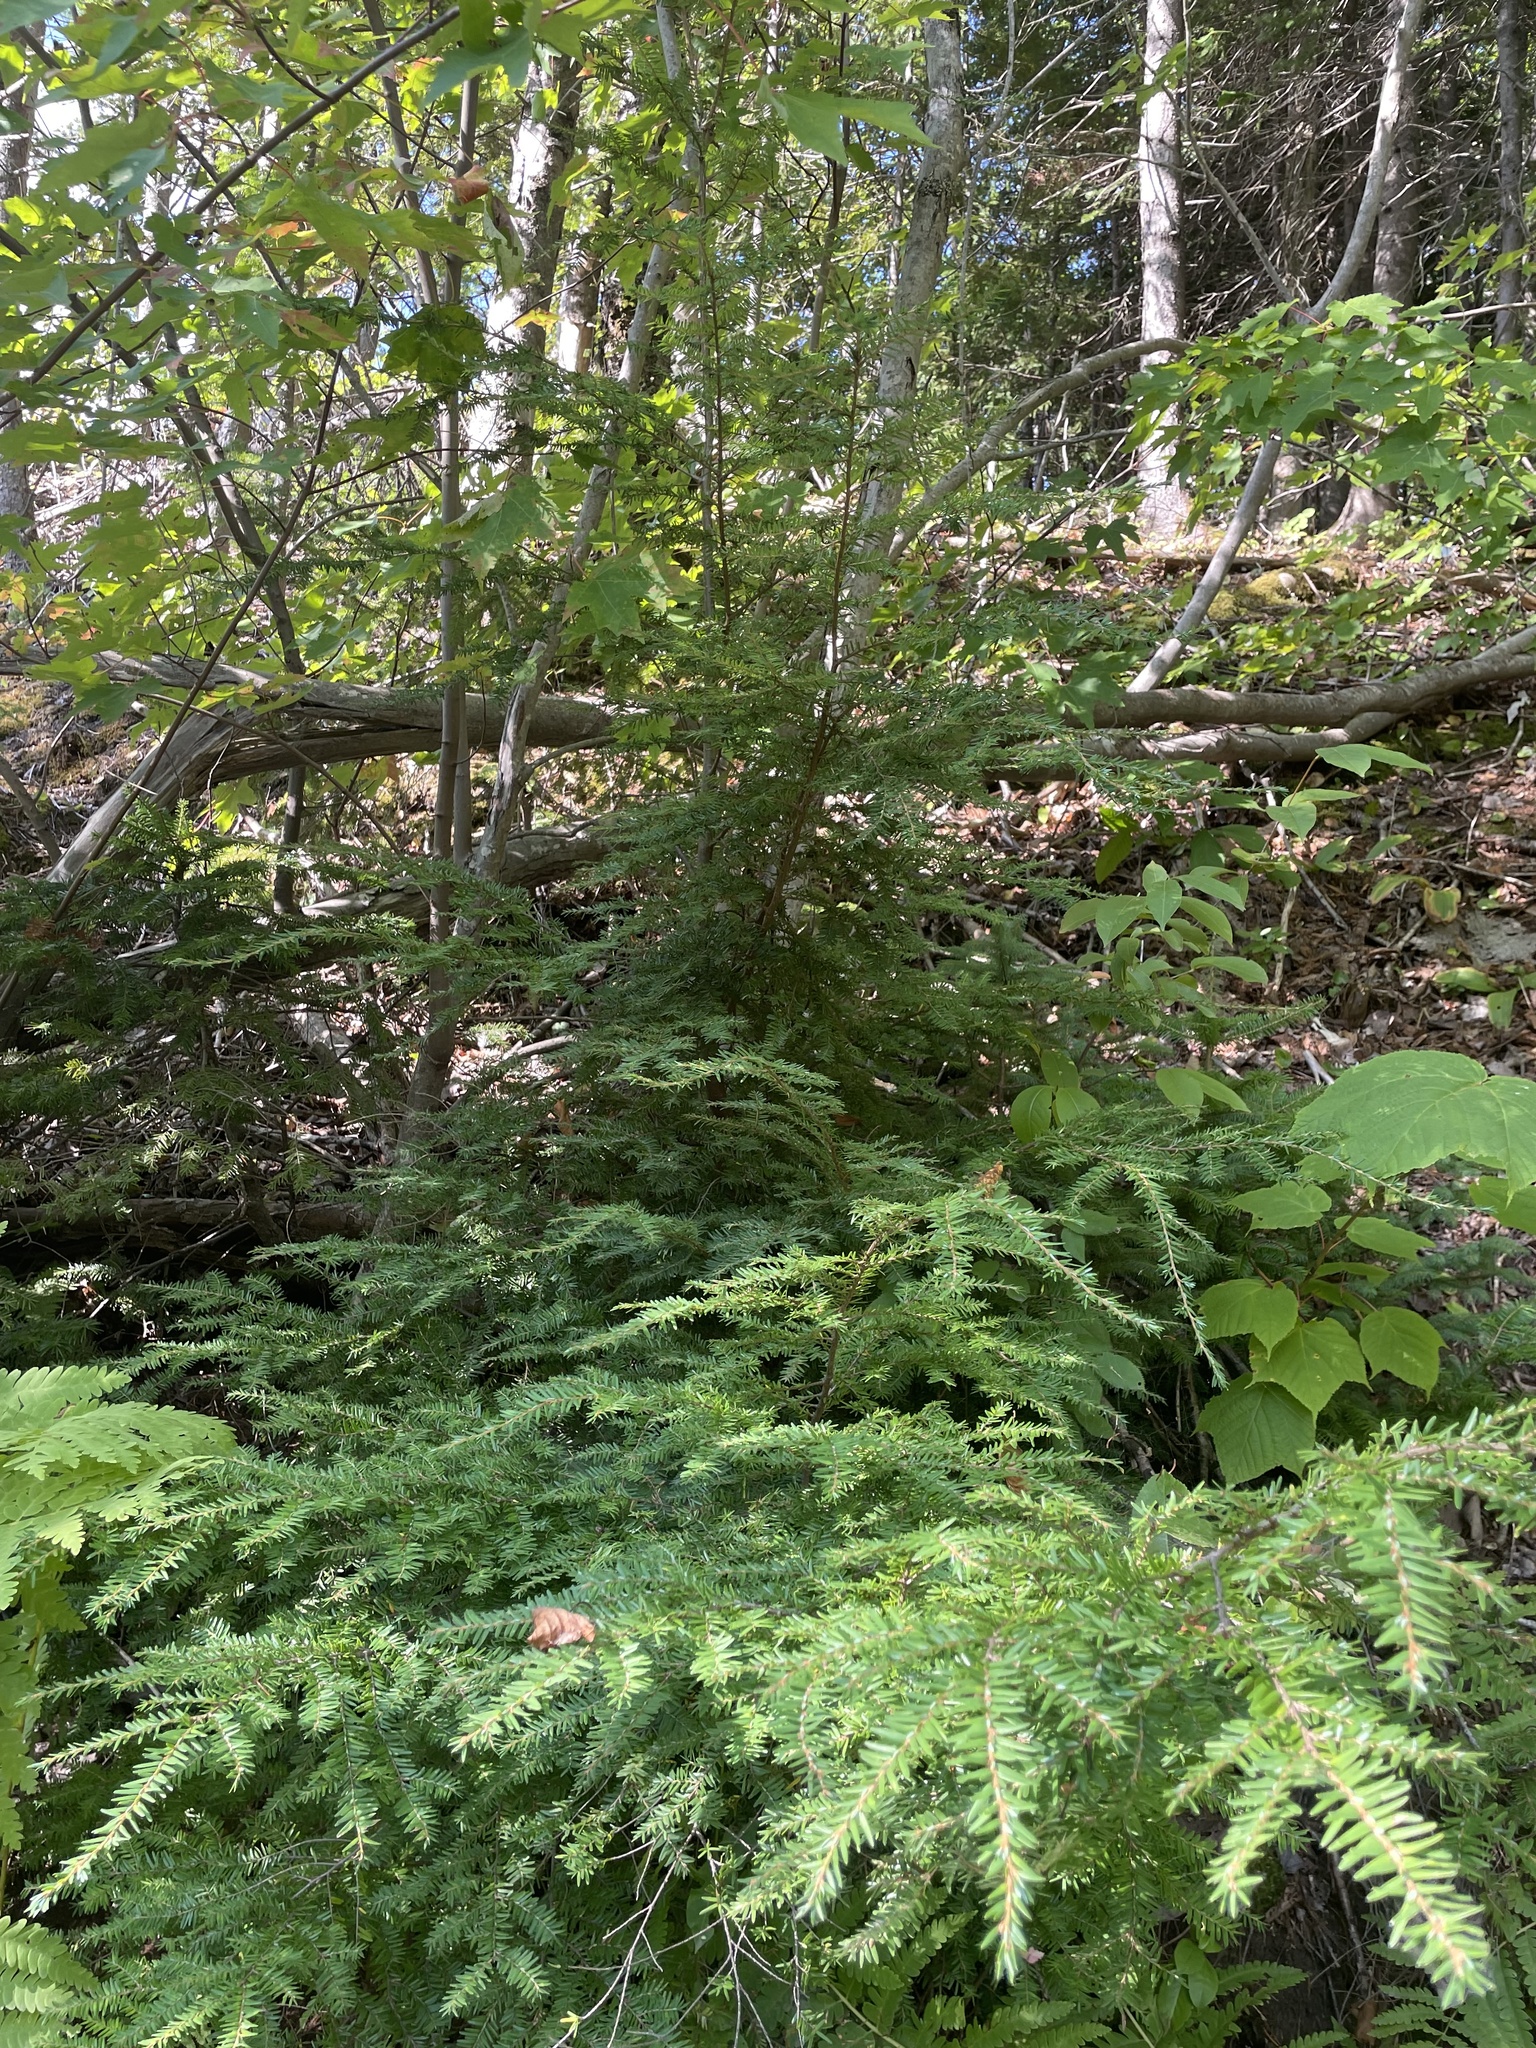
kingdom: Plantae
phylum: Tracheophyta
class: Pinopsida
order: Pinales
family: Pinaceae
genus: Tsuga
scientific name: Tsuga canadensis
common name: Eastern hemlock
